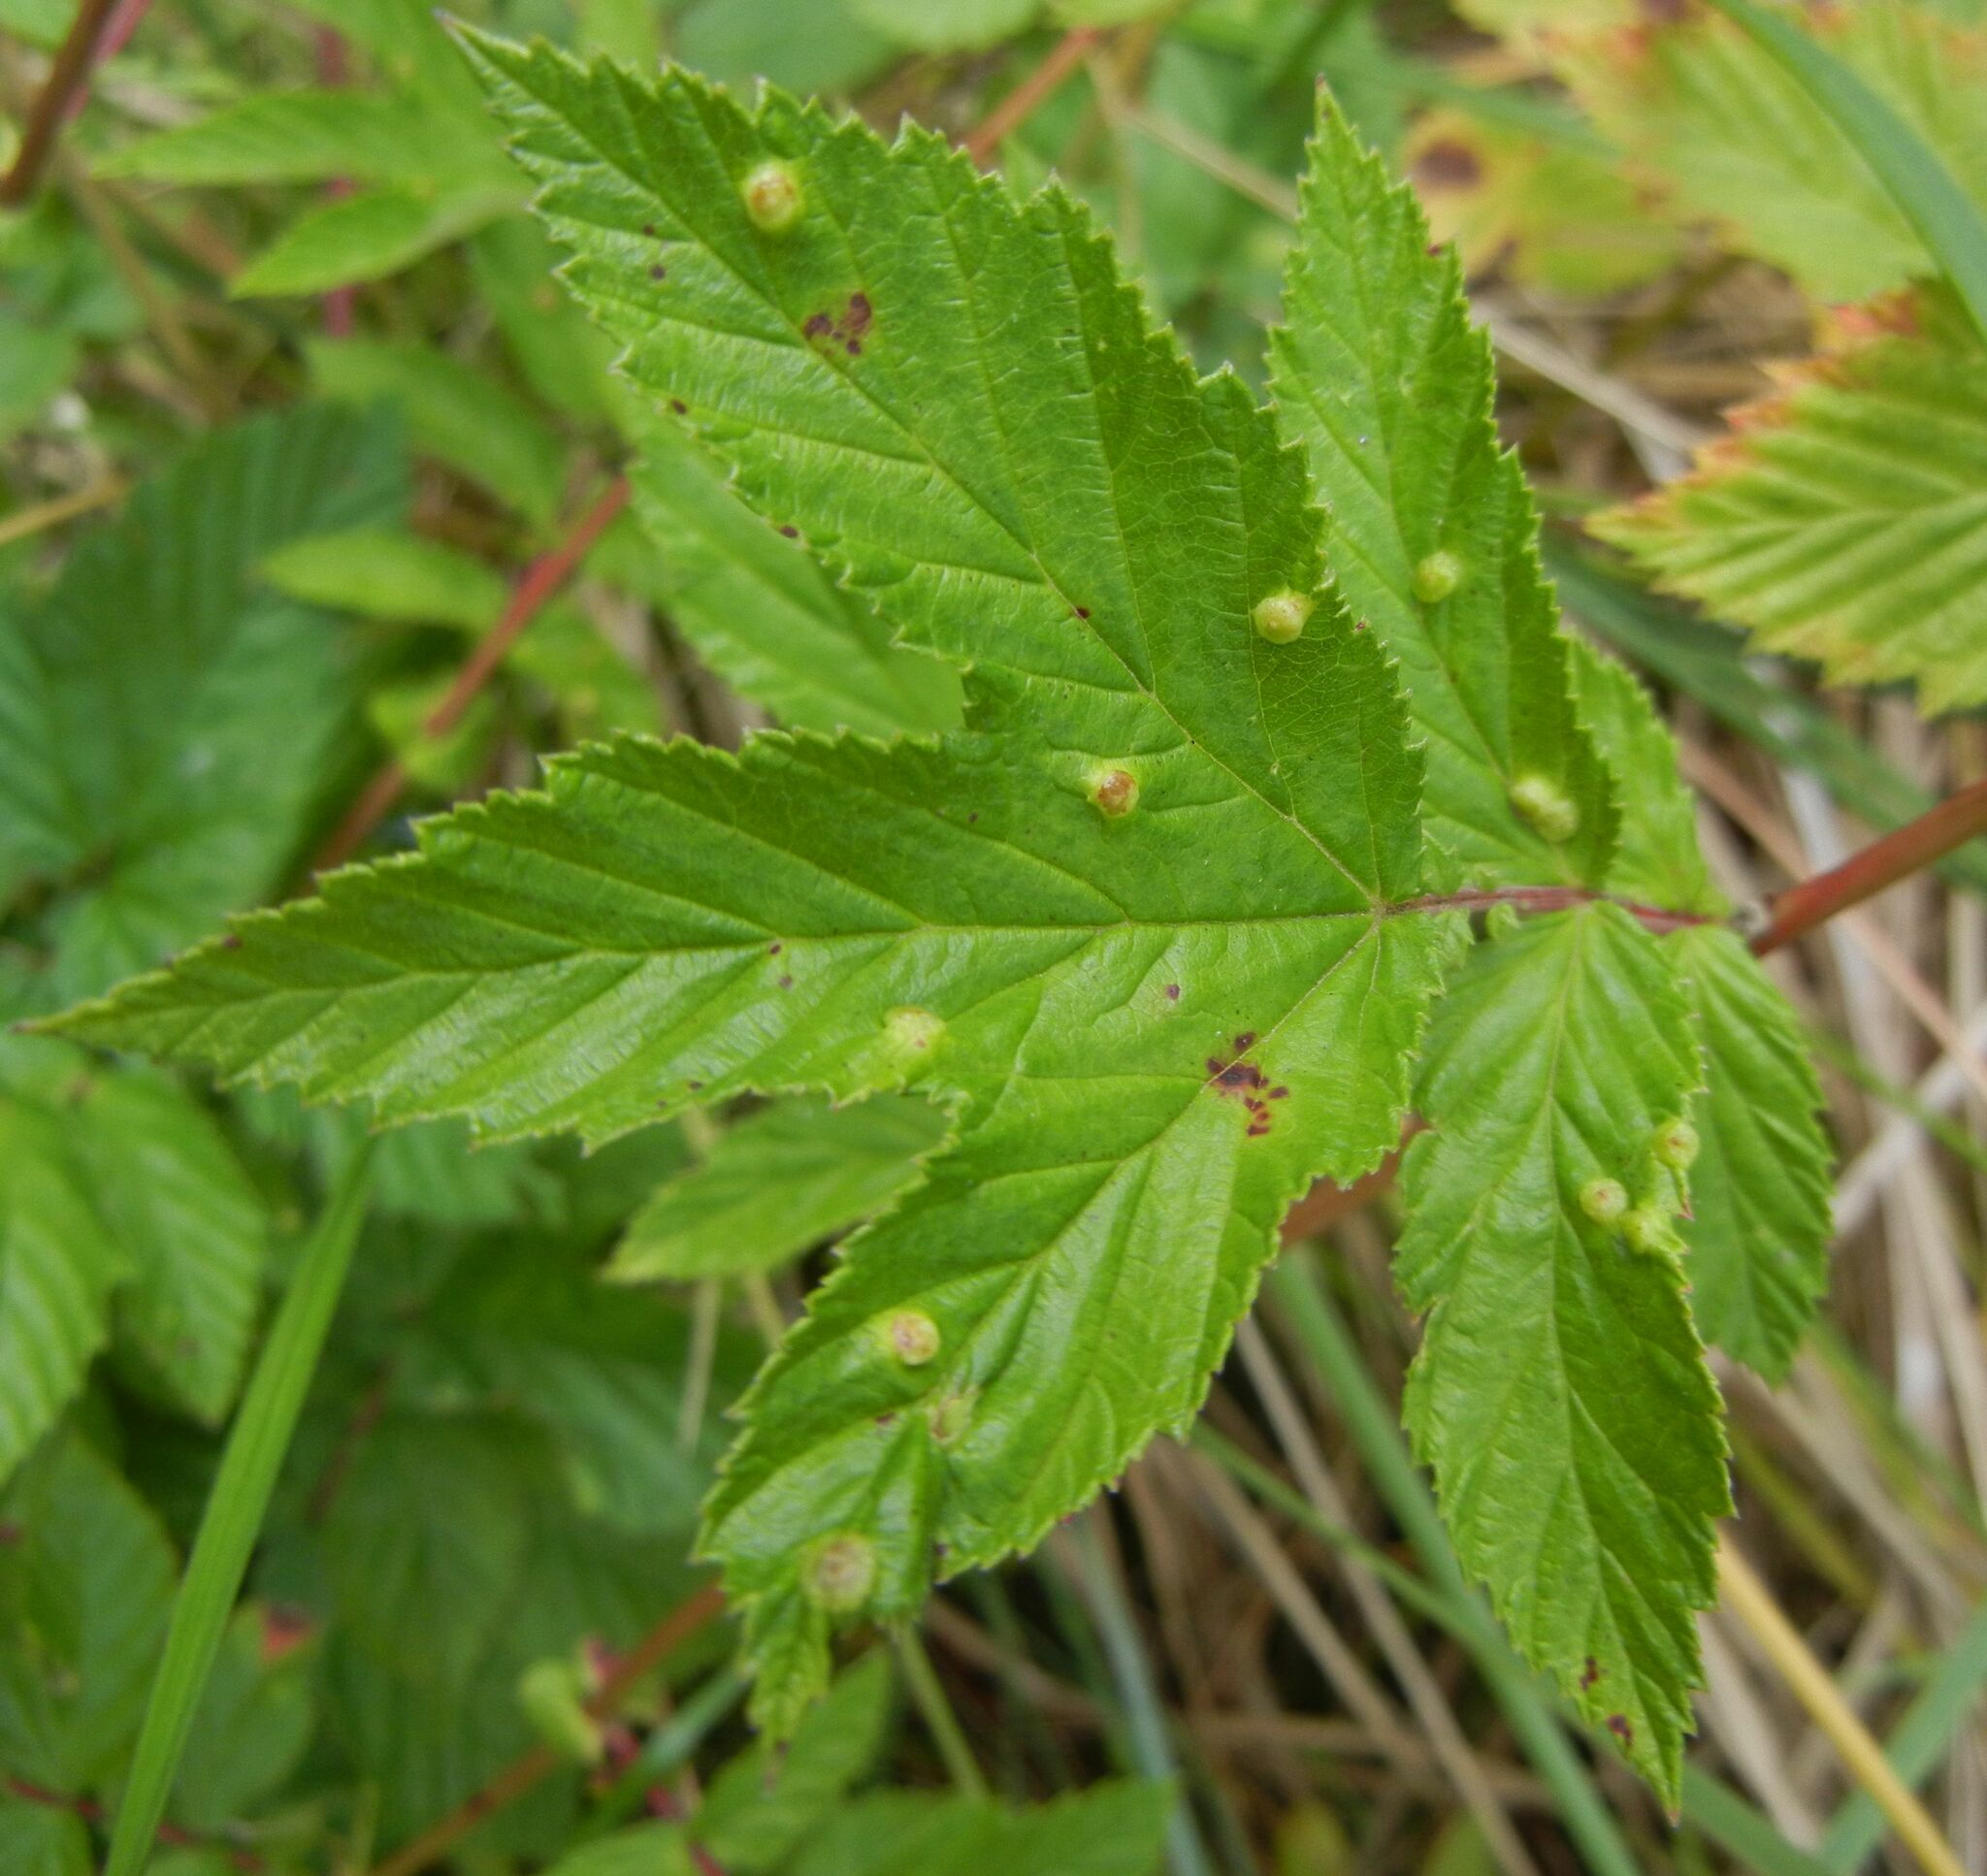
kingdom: Animalia
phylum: Arthropoda
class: Insecta
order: Diptera
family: Cecidomyiidae
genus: Dasineura
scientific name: Dasineura ulmaria
